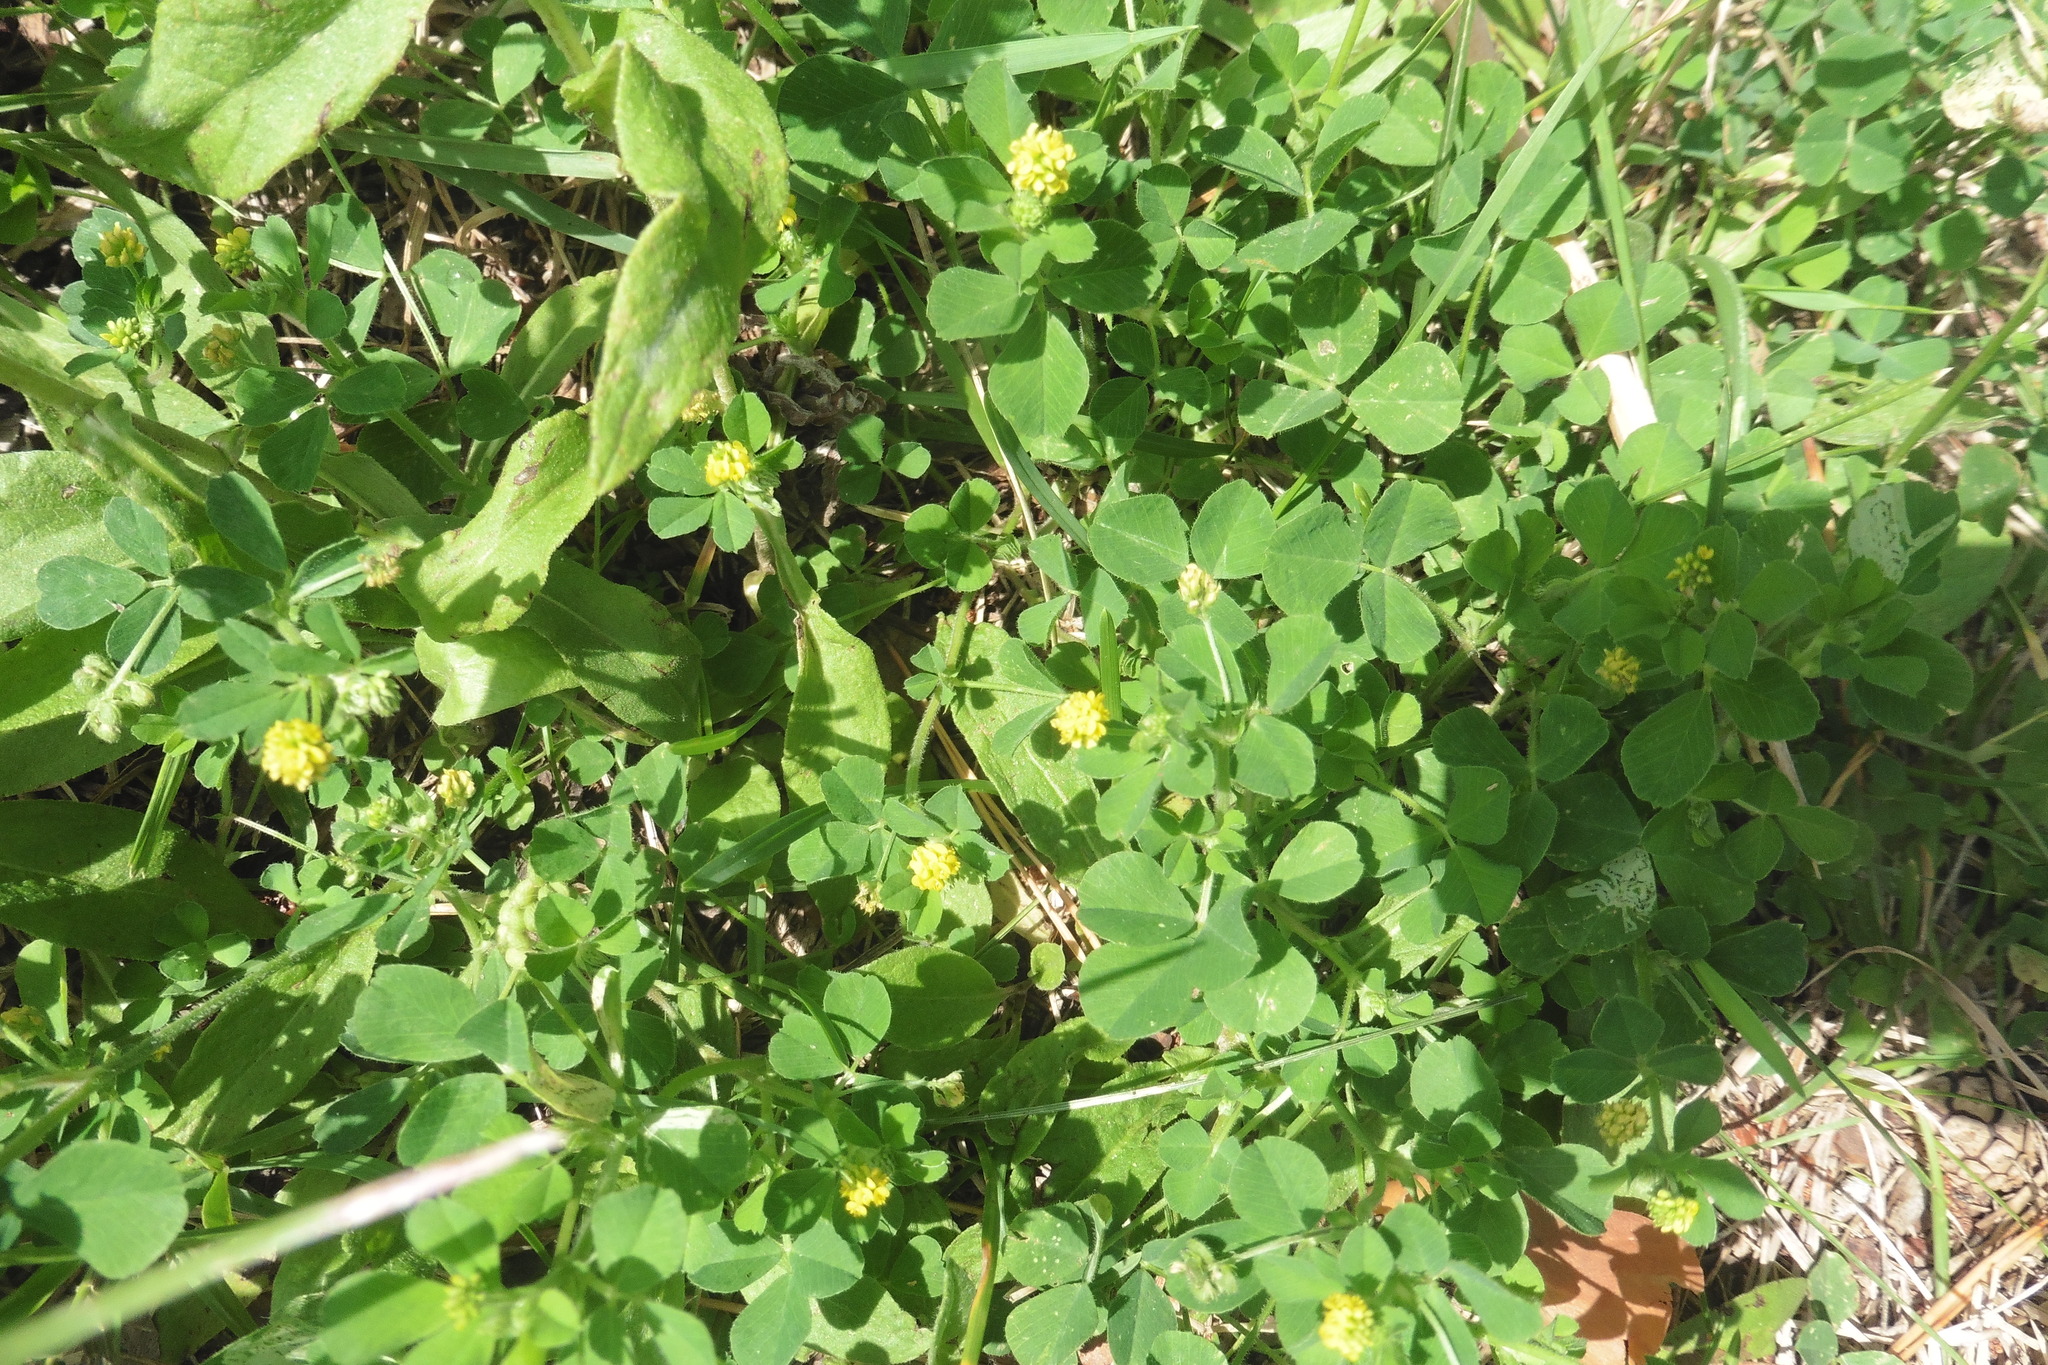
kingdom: Plantae
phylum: Tracheophyta
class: Magnoliopsida
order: Fabales
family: Fabaceae
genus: Medicago
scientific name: Medicago lupulina
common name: Black medick
